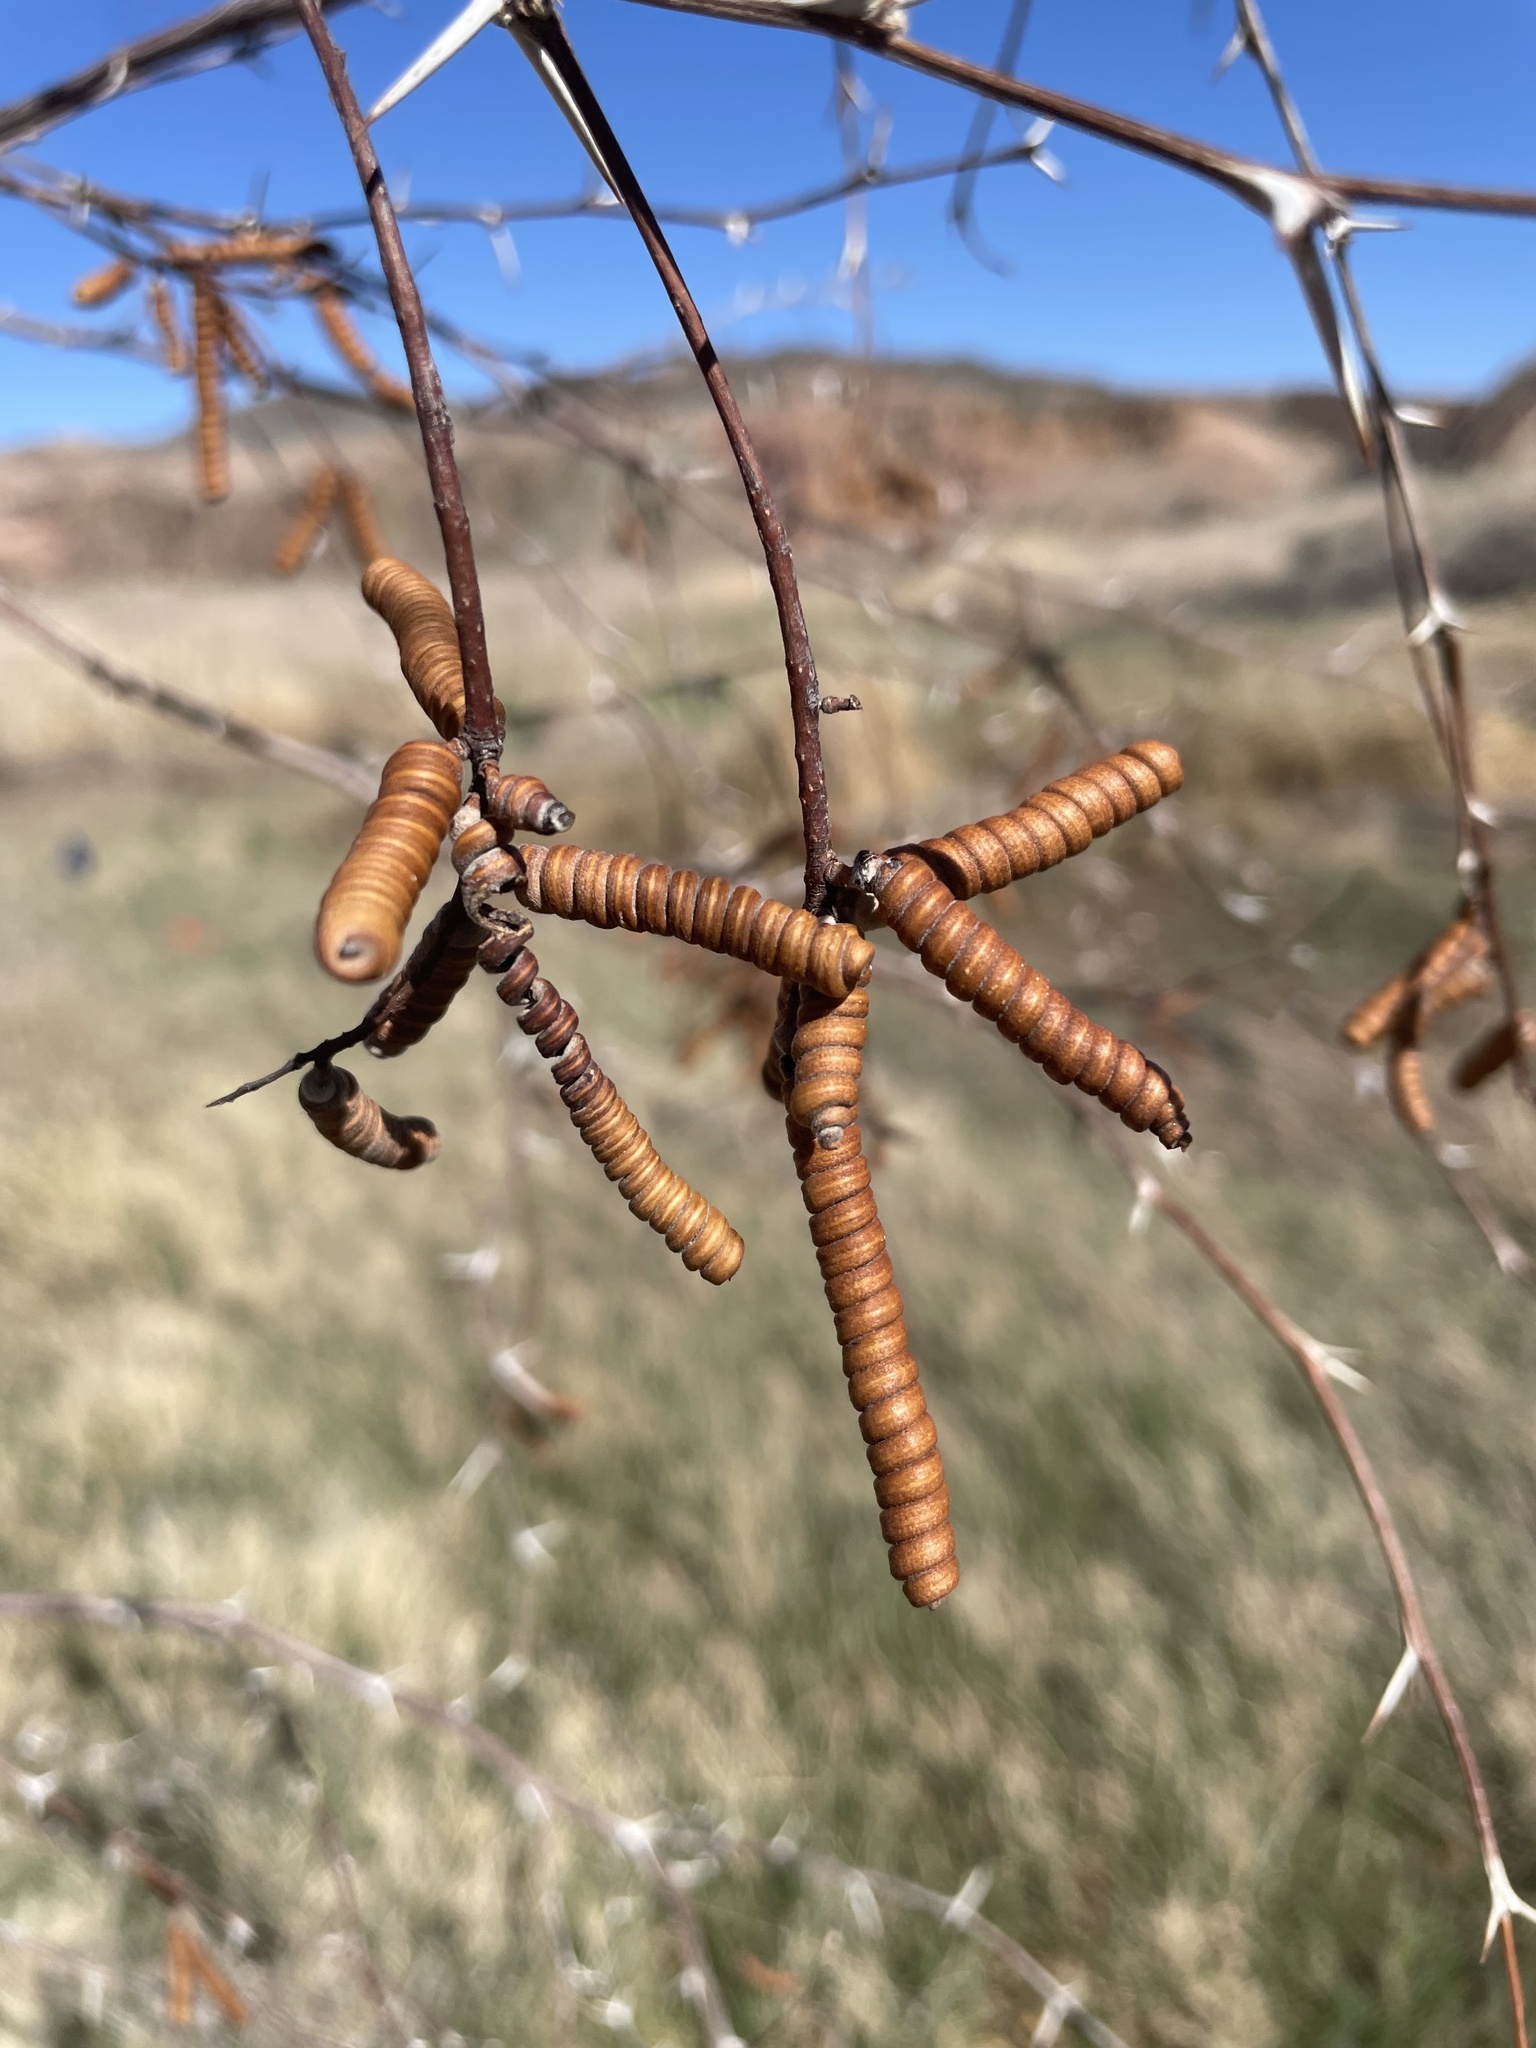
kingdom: Plantae
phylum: Tracheophyta
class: Magnoliopsida
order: Fabales
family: Fabaceae
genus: Prosopis
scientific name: Prosopis pubescens
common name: Screw-bean
